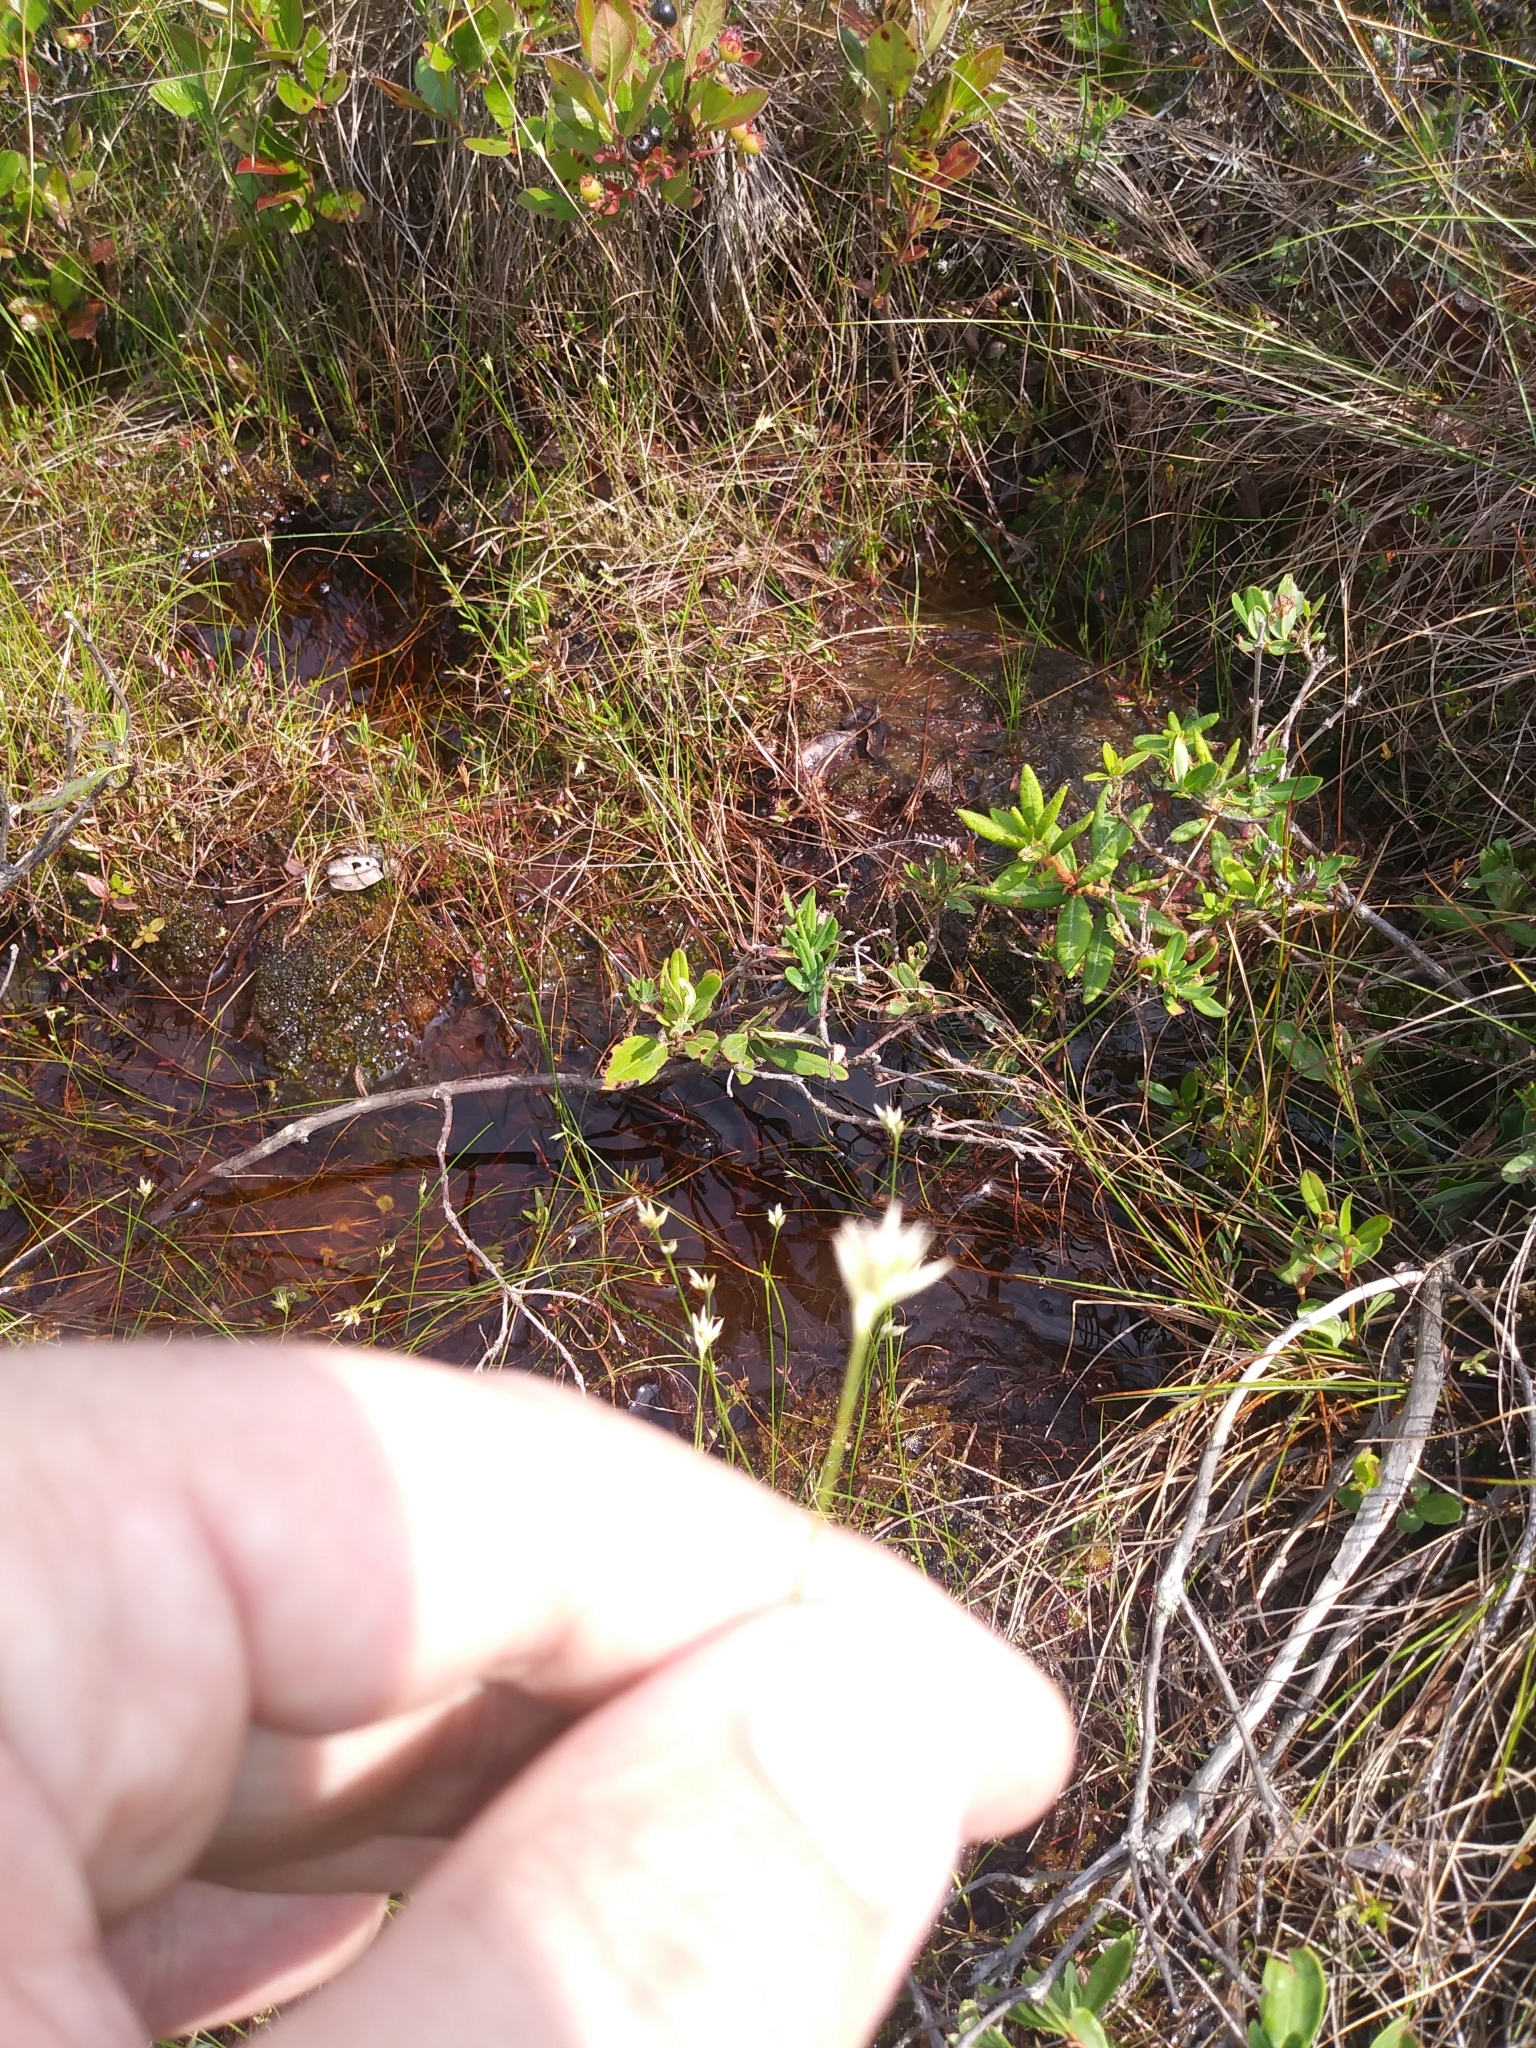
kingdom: Plantae
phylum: Tracheophyta
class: Liliopsida
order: Poales
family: Cyperaceae
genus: Rhynchospora
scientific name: Rhynchospora alba
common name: White beak-sedge
